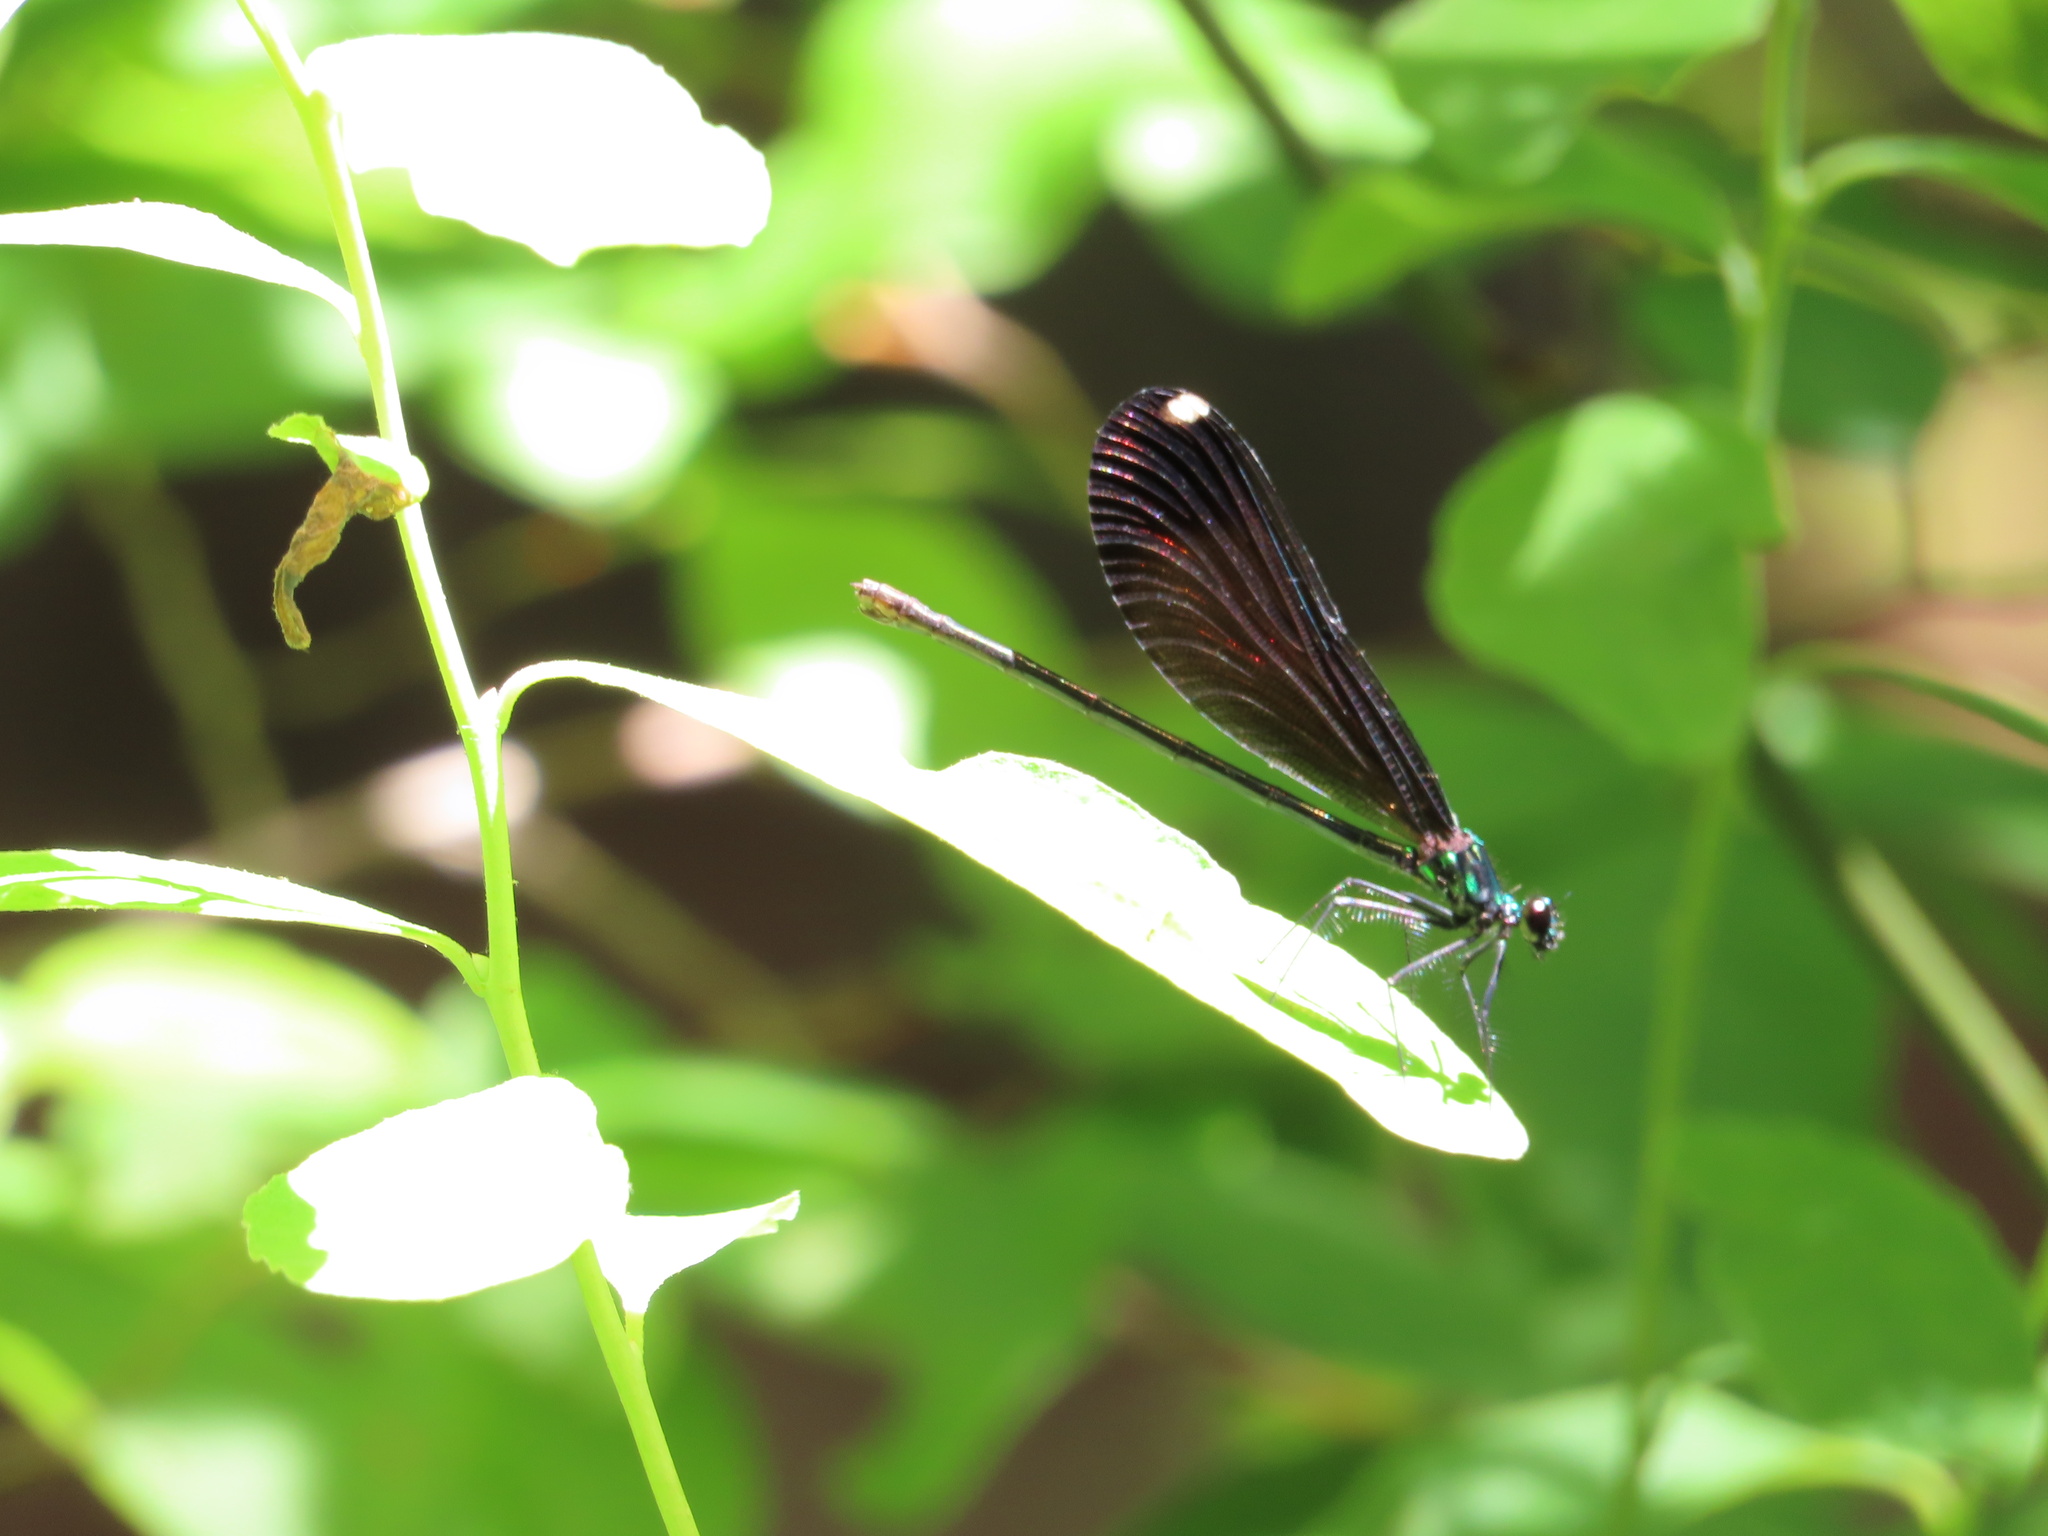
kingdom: Animalia
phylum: Arthropoda
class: Insecta
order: Odonata
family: Calopterygidae
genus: Calopteryx
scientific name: Calopteryx maculata
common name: Ebony jewelwing
